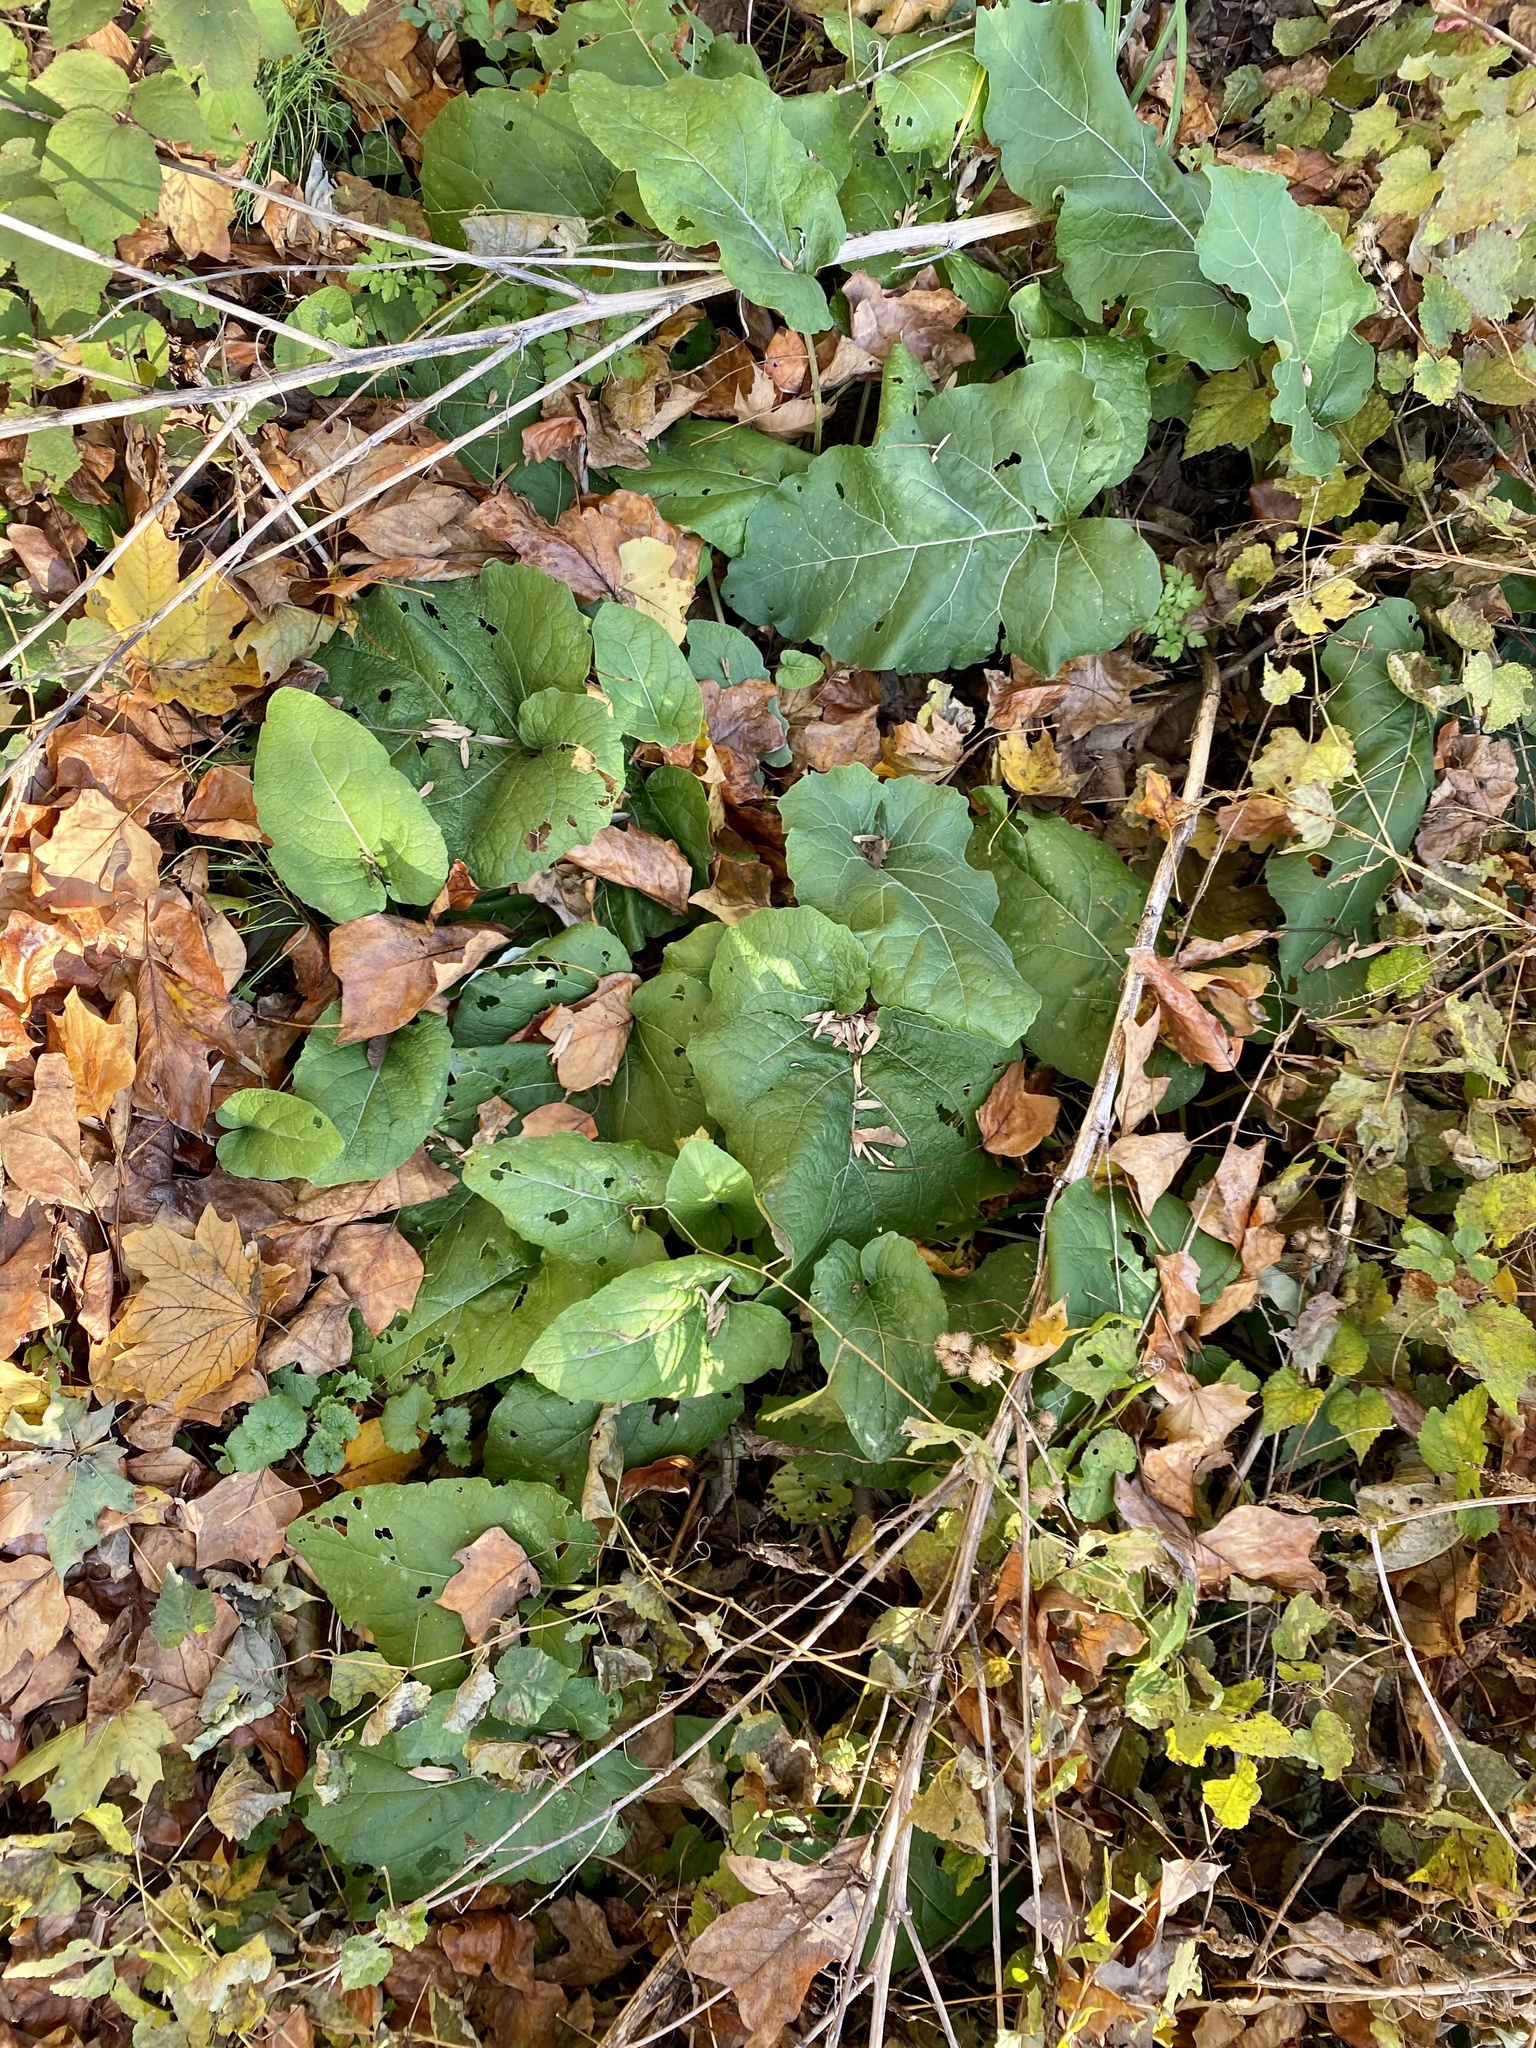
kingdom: Plantae
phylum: Tracheophyta
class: Magnoliopsida
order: Asterales
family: Asteraceae
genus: Arctium
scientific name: Arctium minus
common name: Lesser burdock
